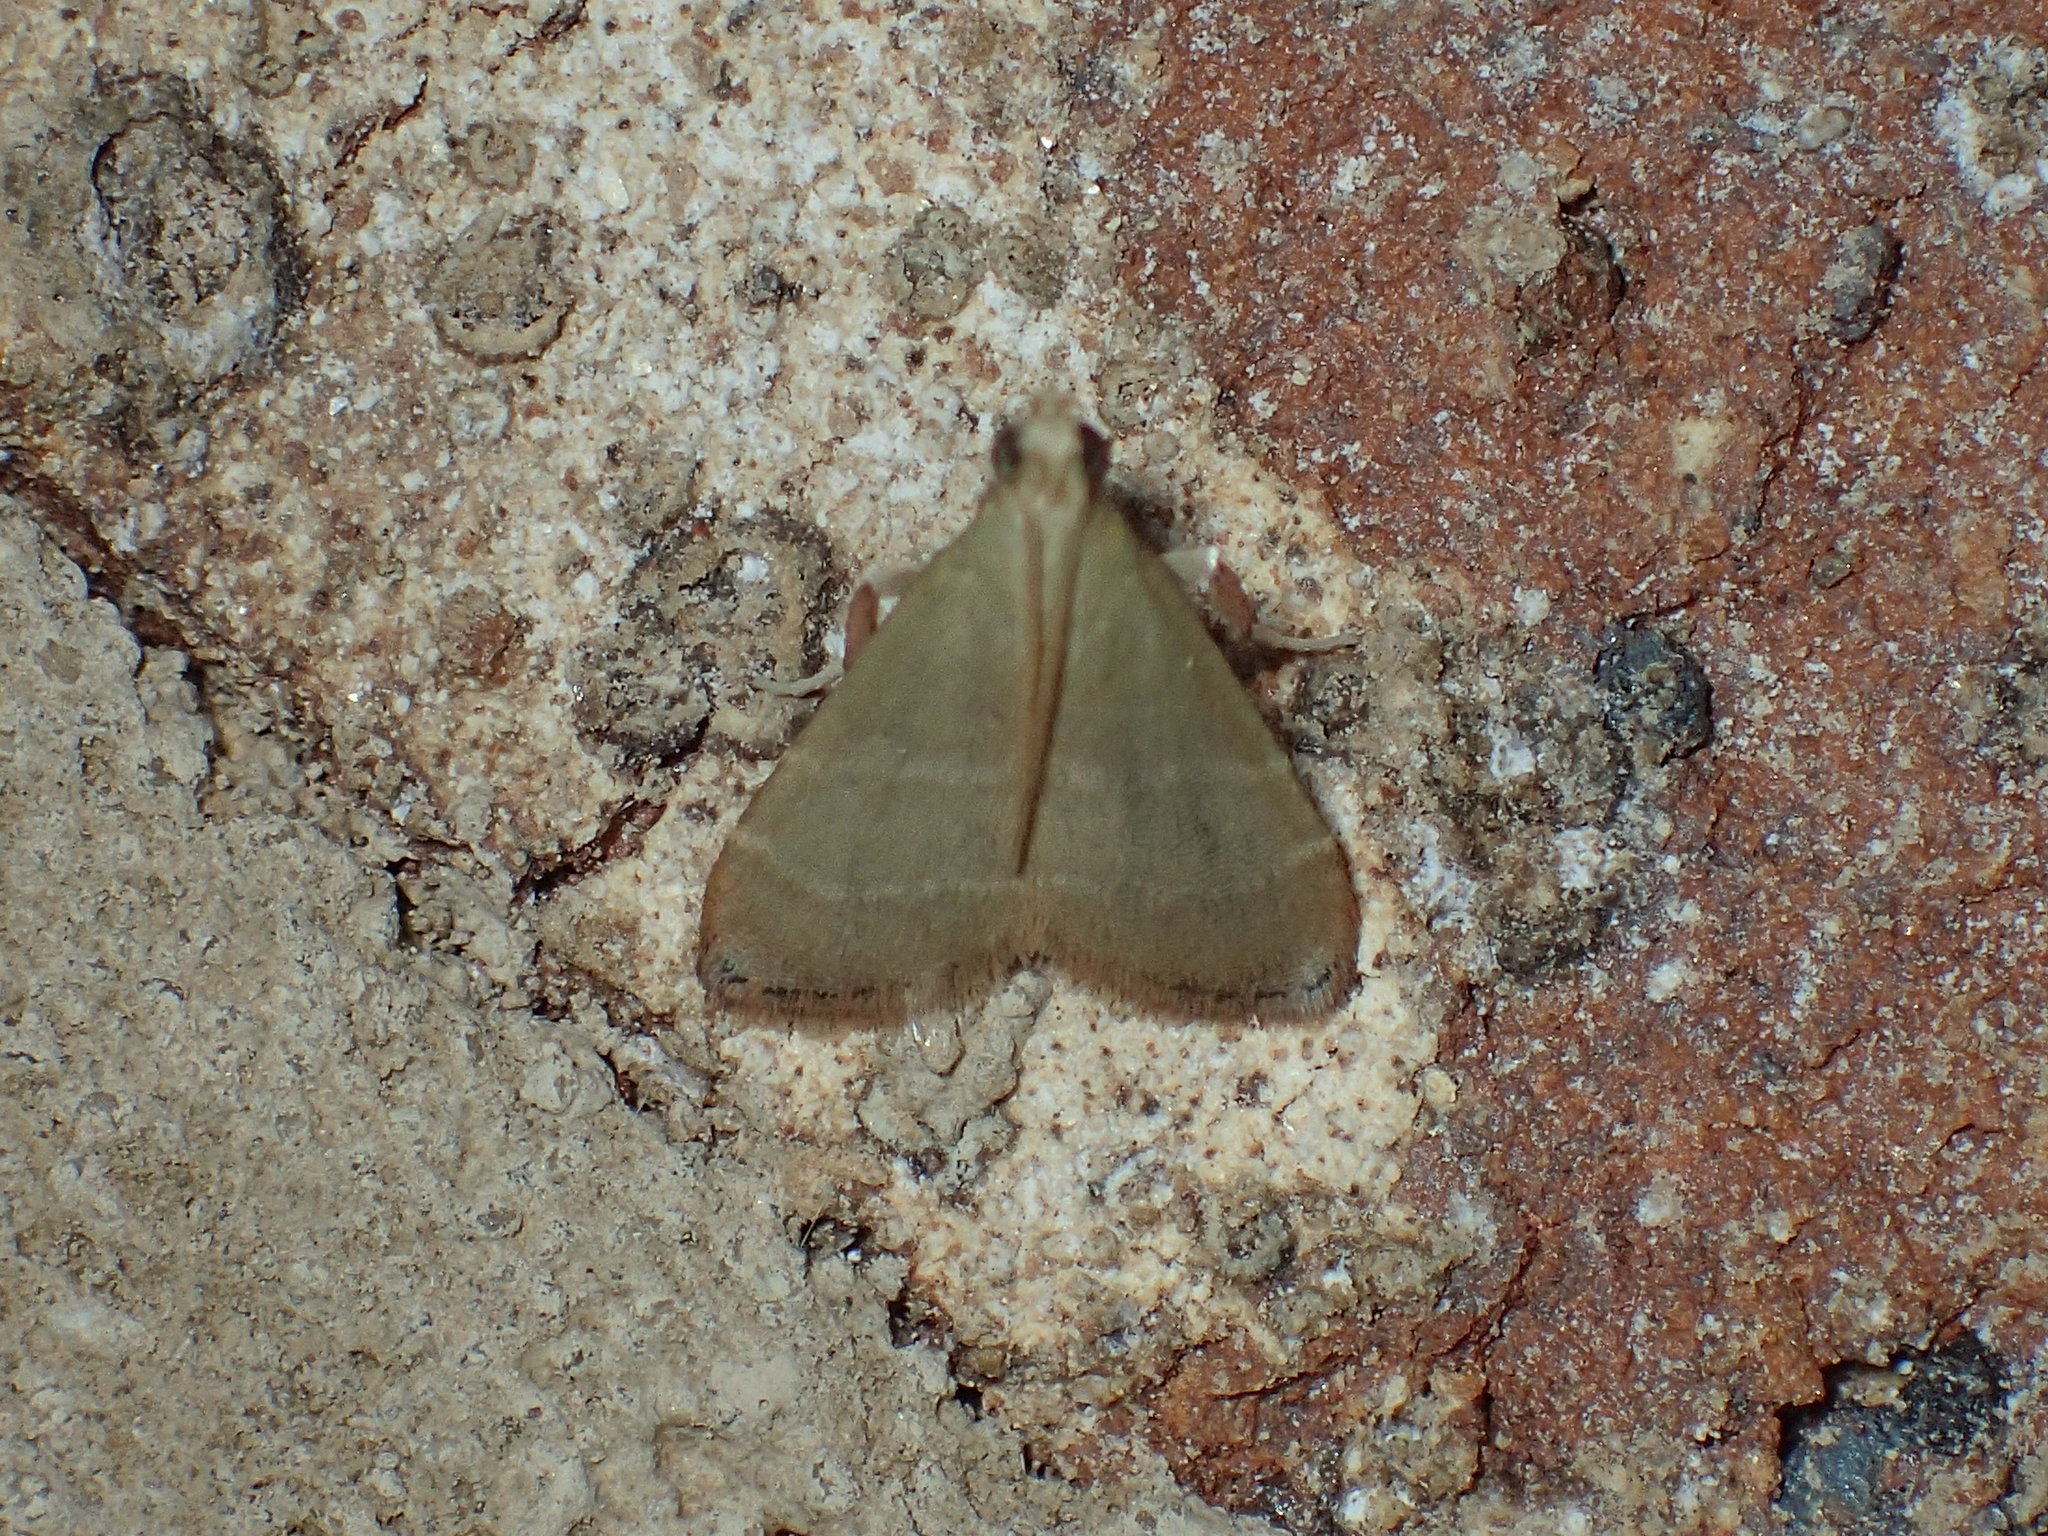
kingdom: Animalia
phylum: Arthropoda
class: Insecta
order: Lepidoptera
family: Pyralidae
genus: Arta
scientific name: Arta olivalis
